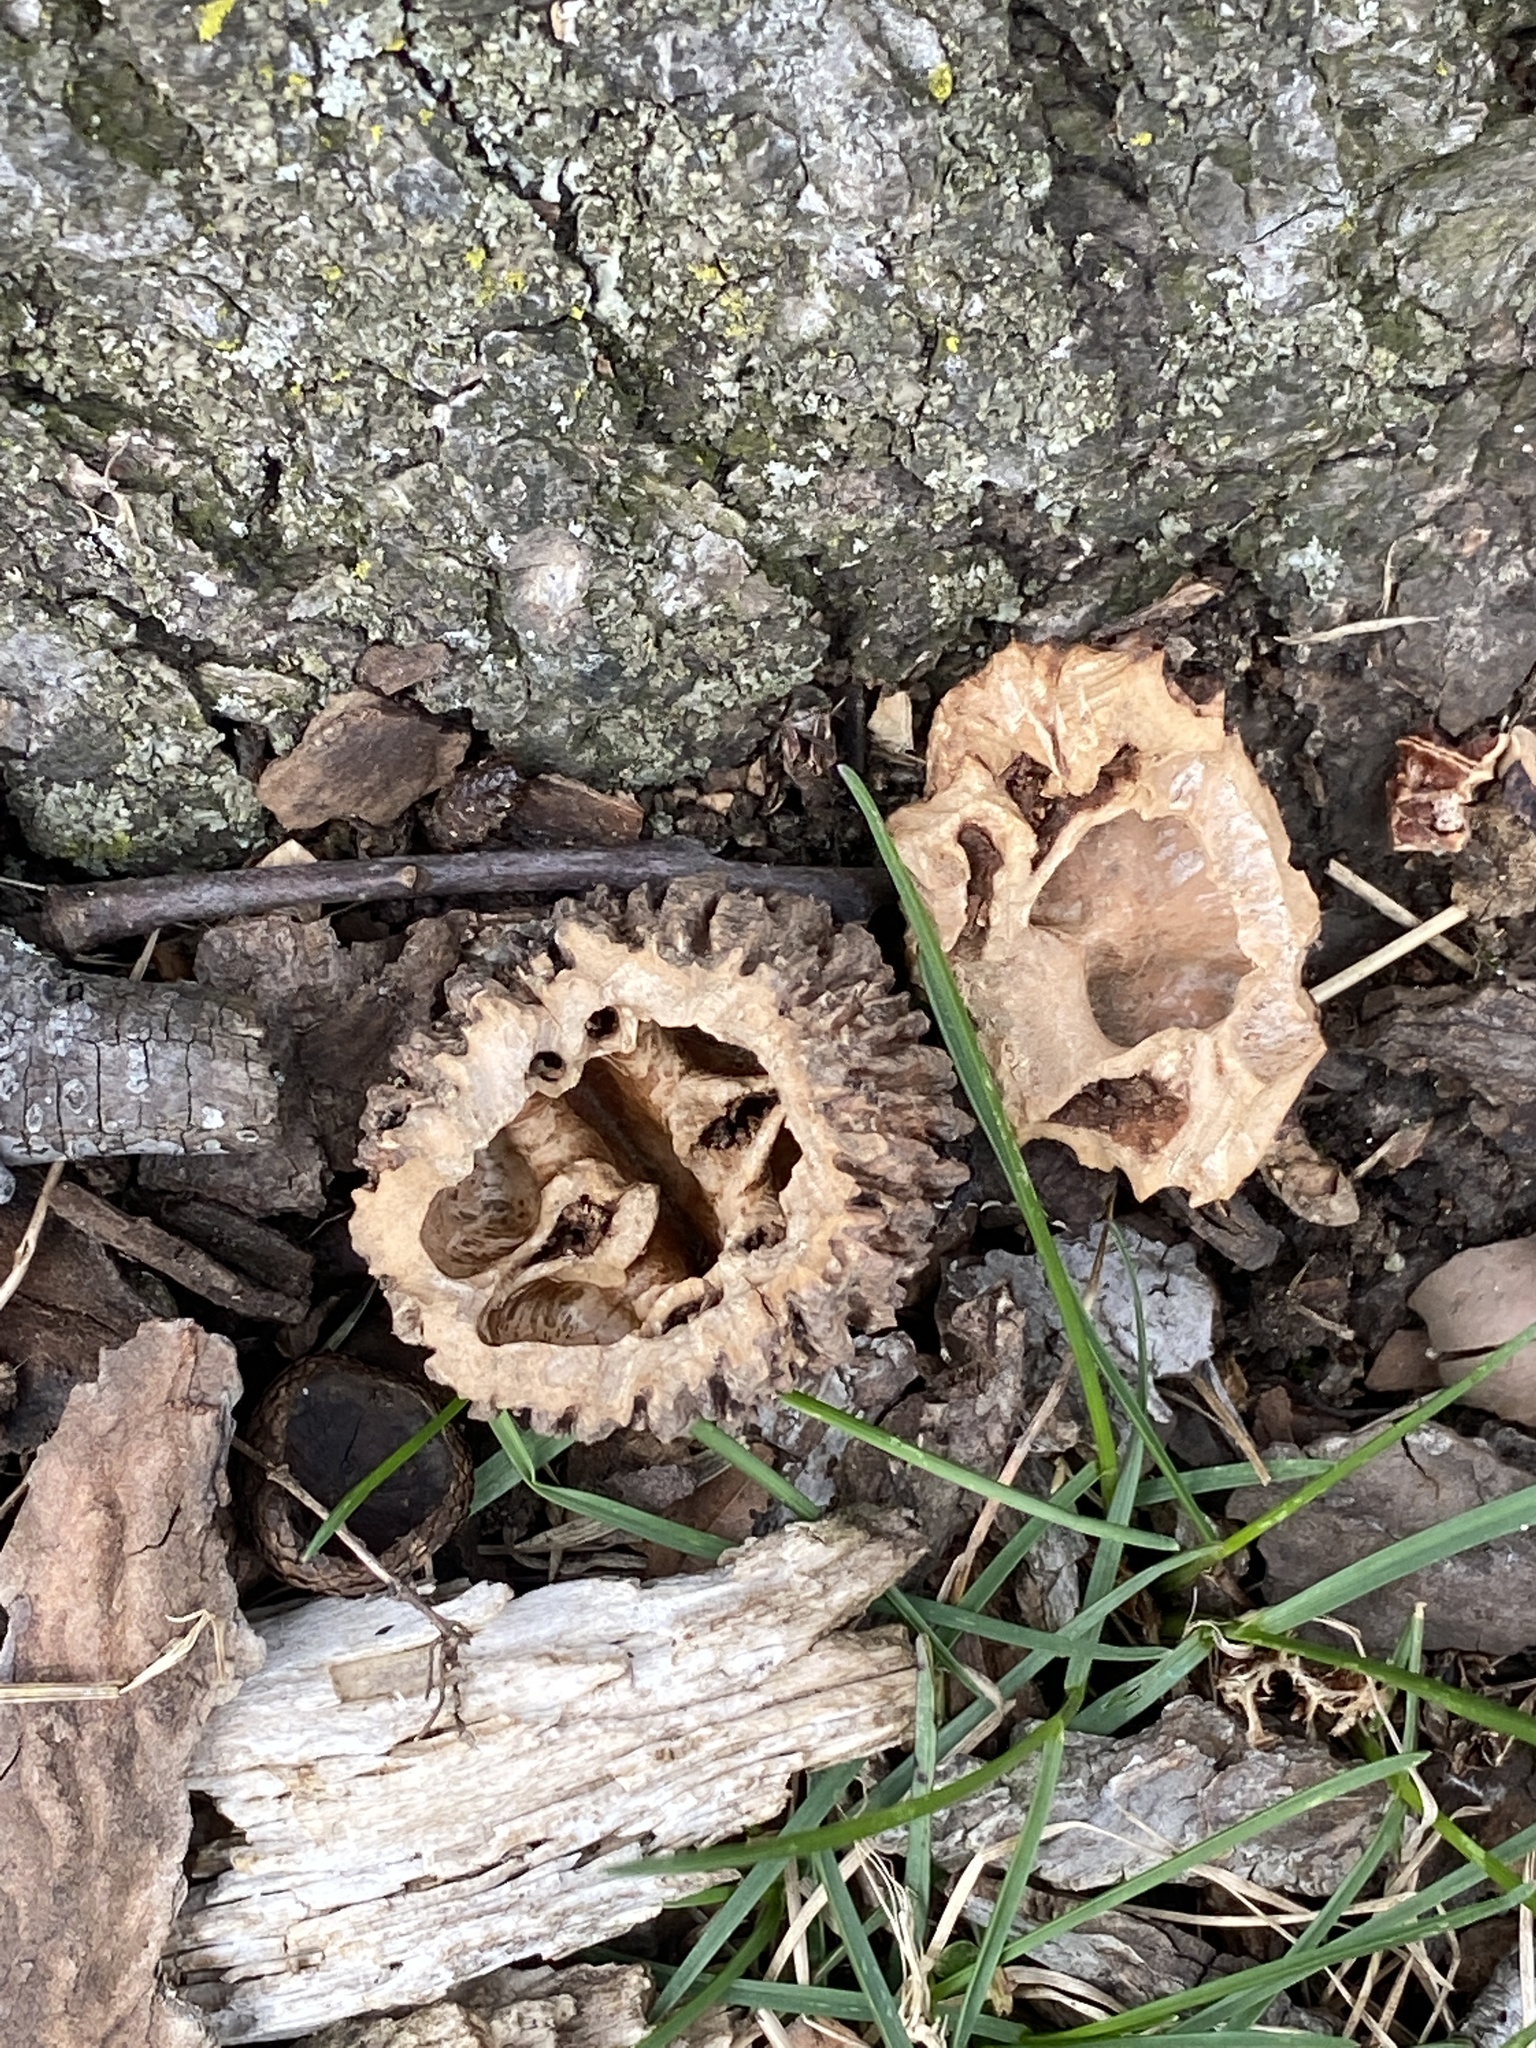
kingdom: Plantae
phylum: Tracheophyta
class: Magnoliopsida
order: Fagales
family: Juglandaceae
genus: Juglans
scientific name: Juglans nigra
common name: Black walnut
